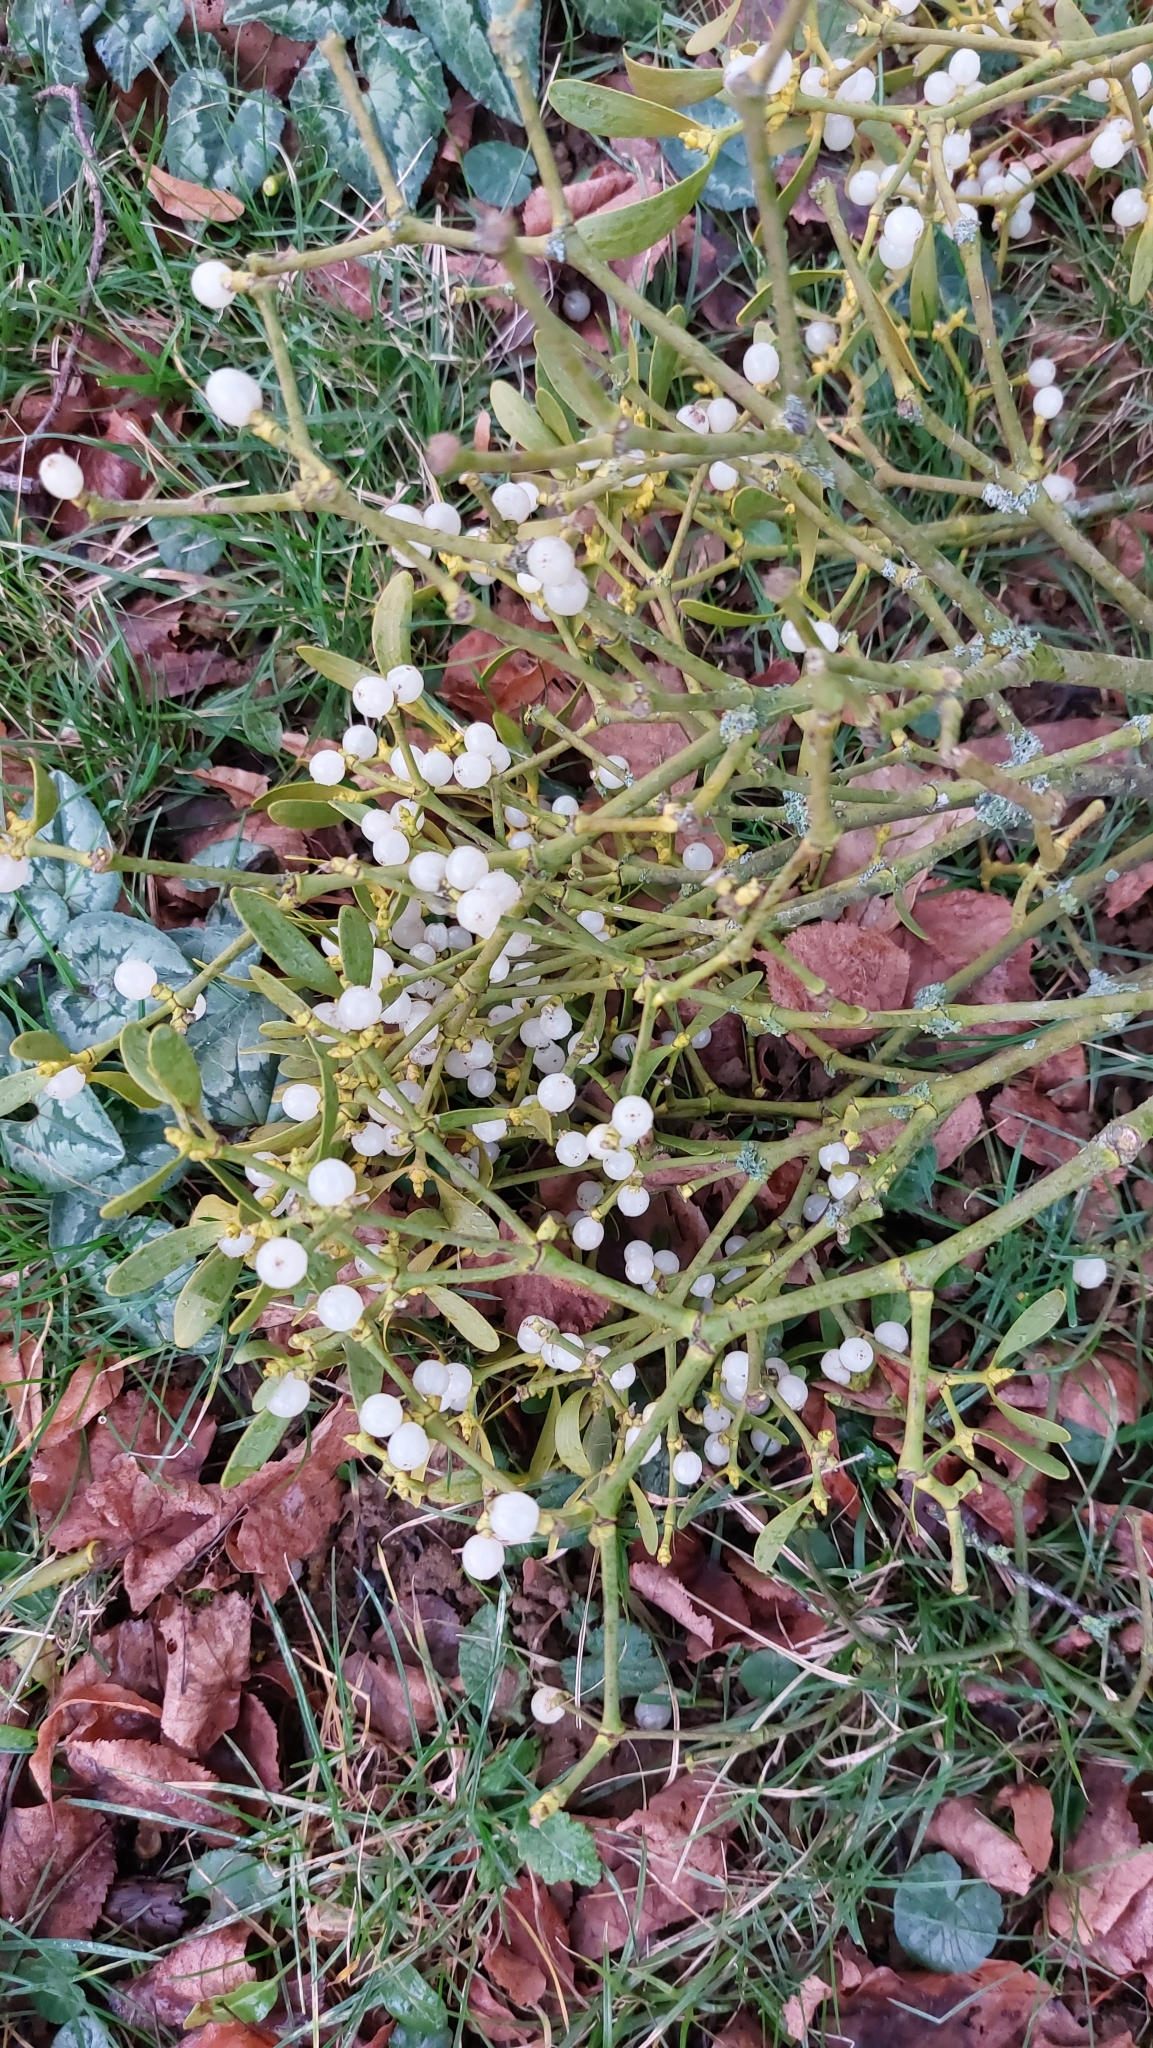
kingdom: Plantae
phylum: Tracheophyta
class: Magnoliopsida
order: Santalales
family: Viscaceae
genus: Viscum
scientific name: Viscum album
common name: Mistletoe
